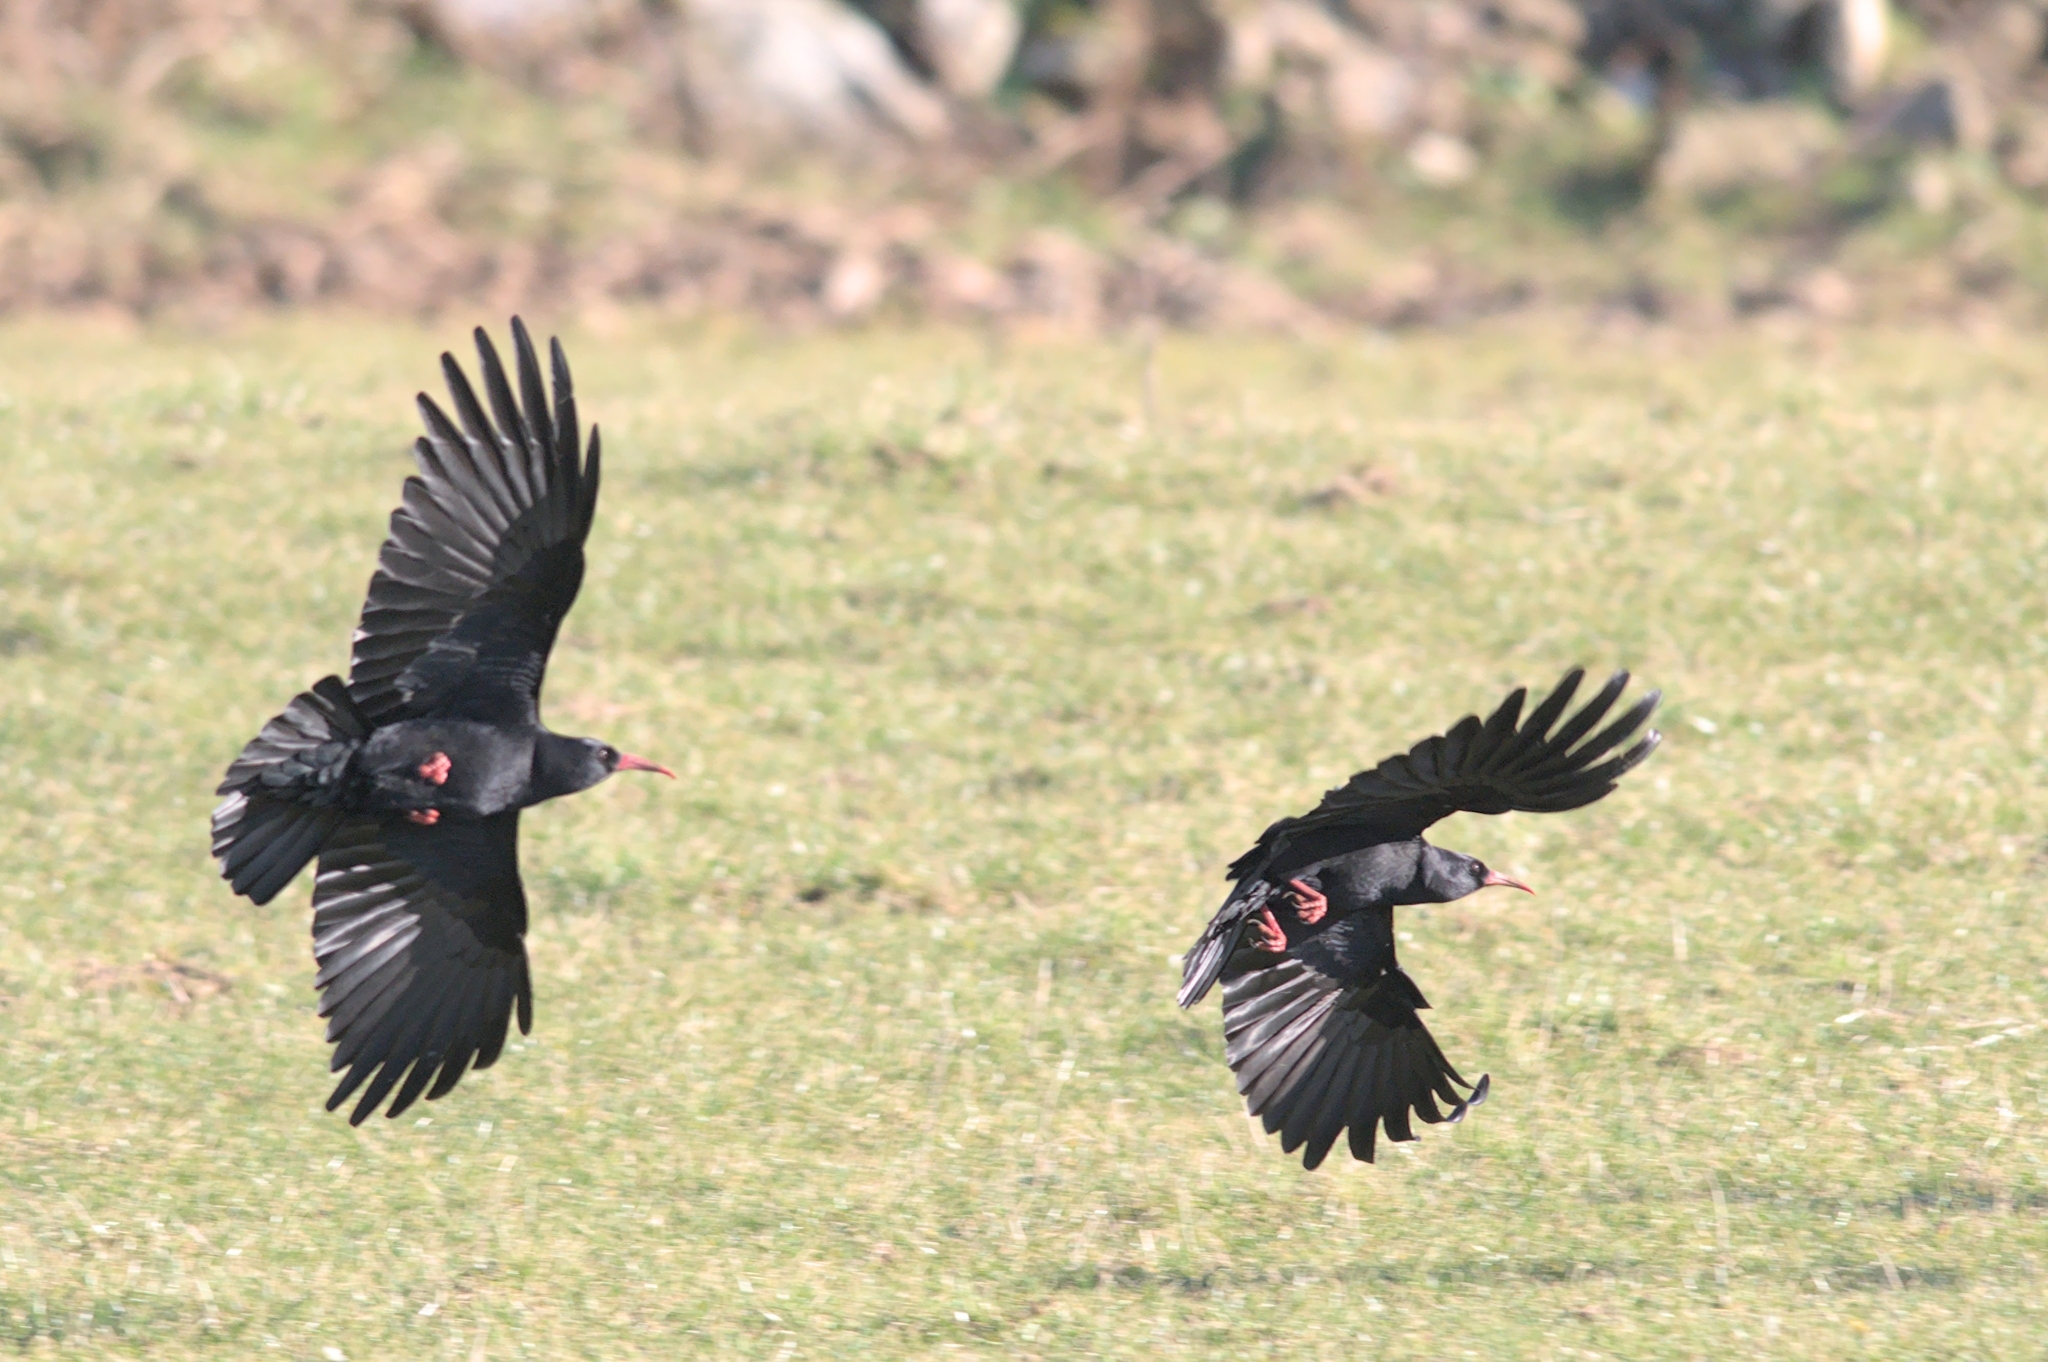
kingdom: Animalia
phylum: Chordata
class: Aves
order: Passeriformes
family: Corvidae
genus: Pyrrhocorax
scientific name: Pyrrhocorax pyrrhocorax
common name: Red-billed chough
